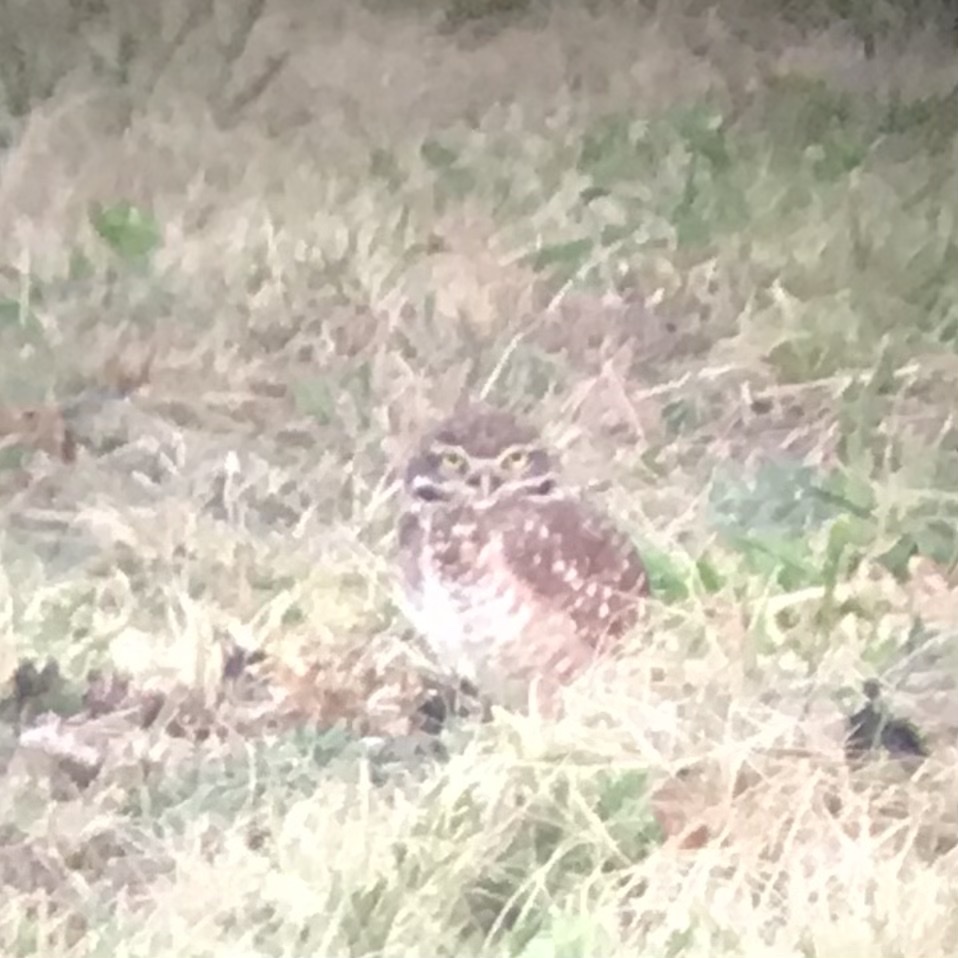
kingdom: Animalia
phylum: Chordata
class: Aves
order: Strigiformes
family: Strigidae
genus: Athene
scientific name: Athene cunicularia
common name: Burrowing owl
